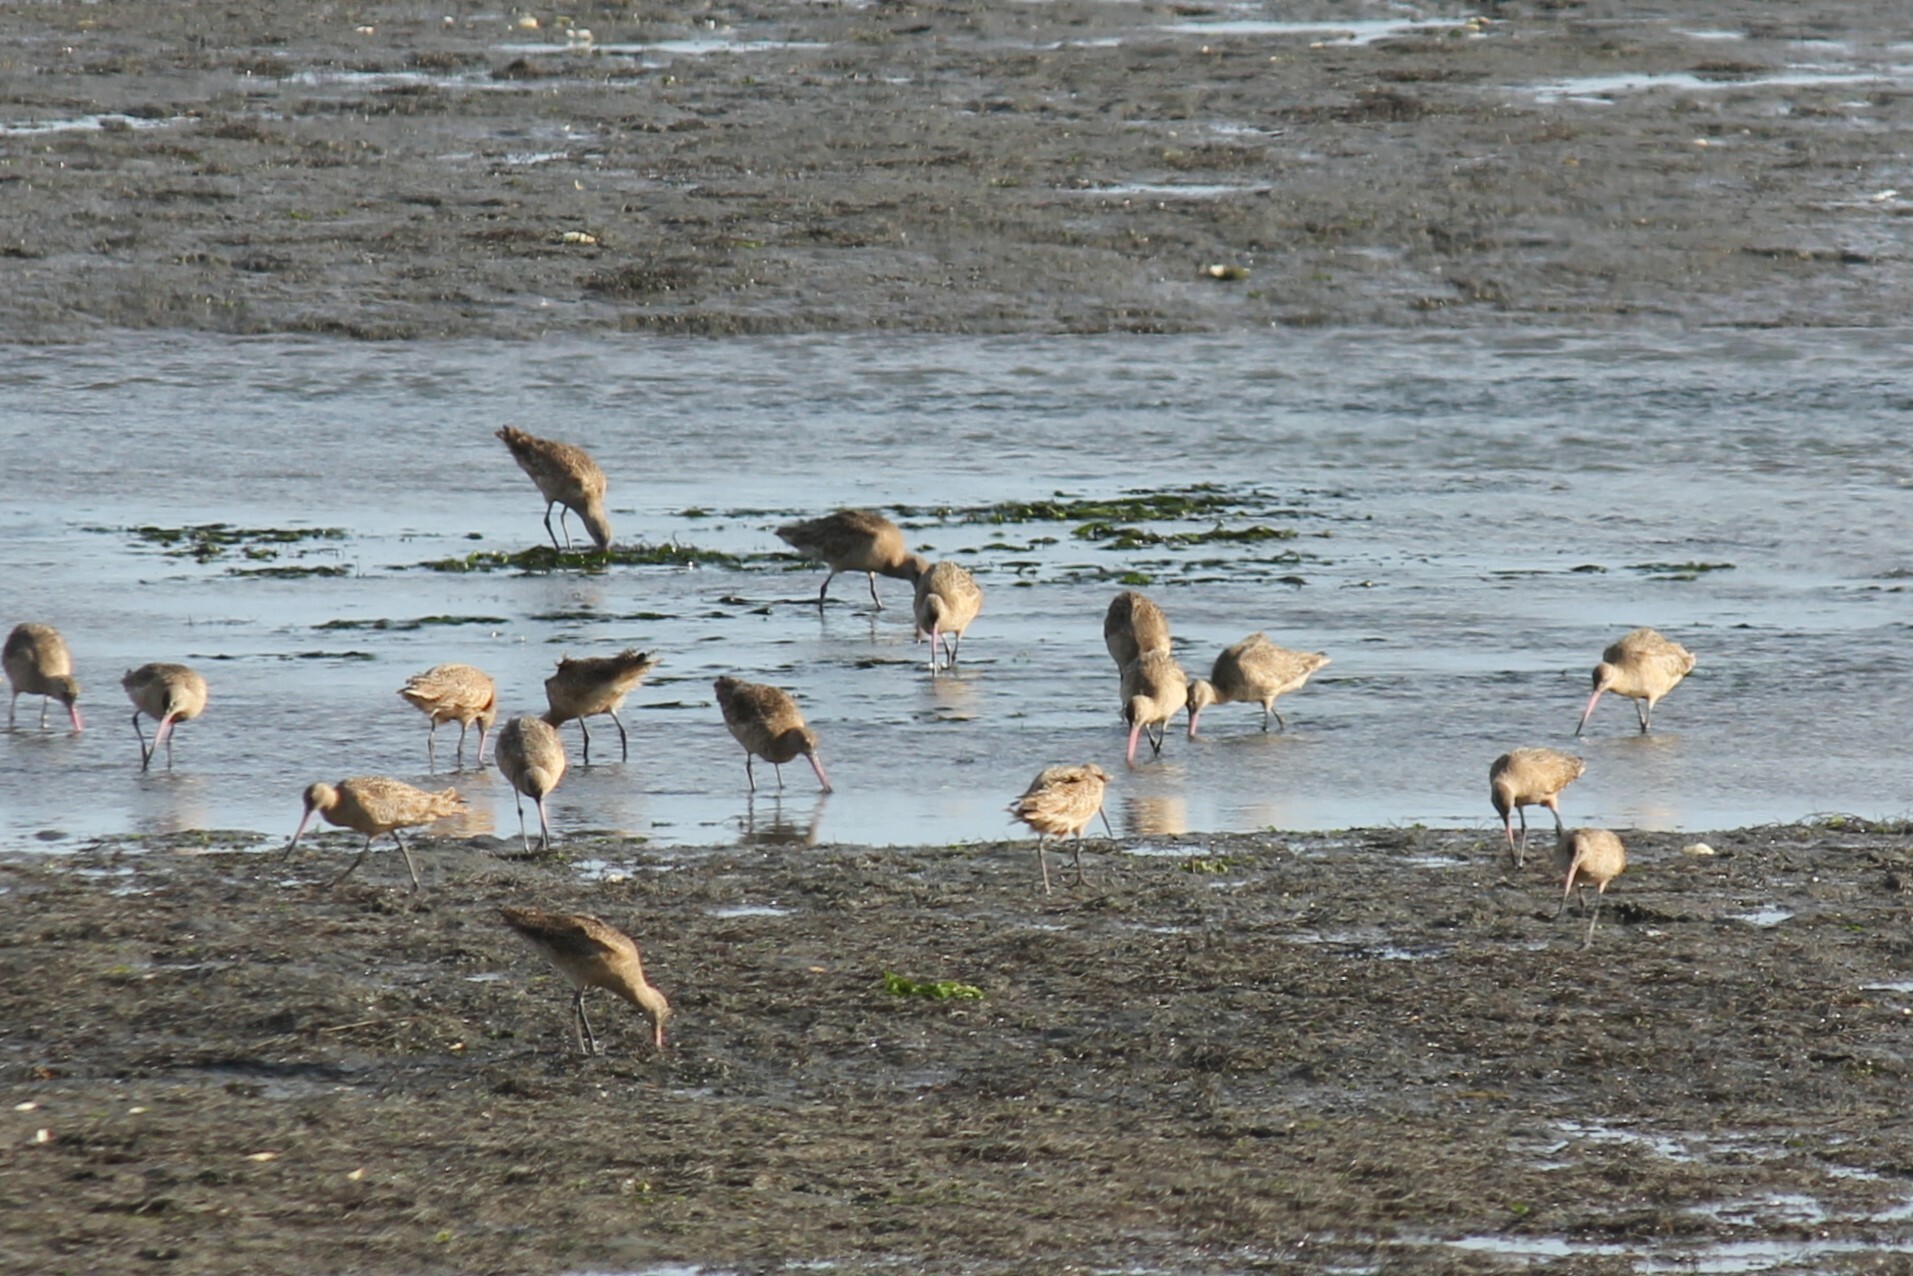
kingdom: Animalia
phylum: Chordata
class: Aves
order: Charadriiformes
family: Scolopacidae
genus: Limosa
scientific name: Limosa fedoa
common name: Marbled godwit
